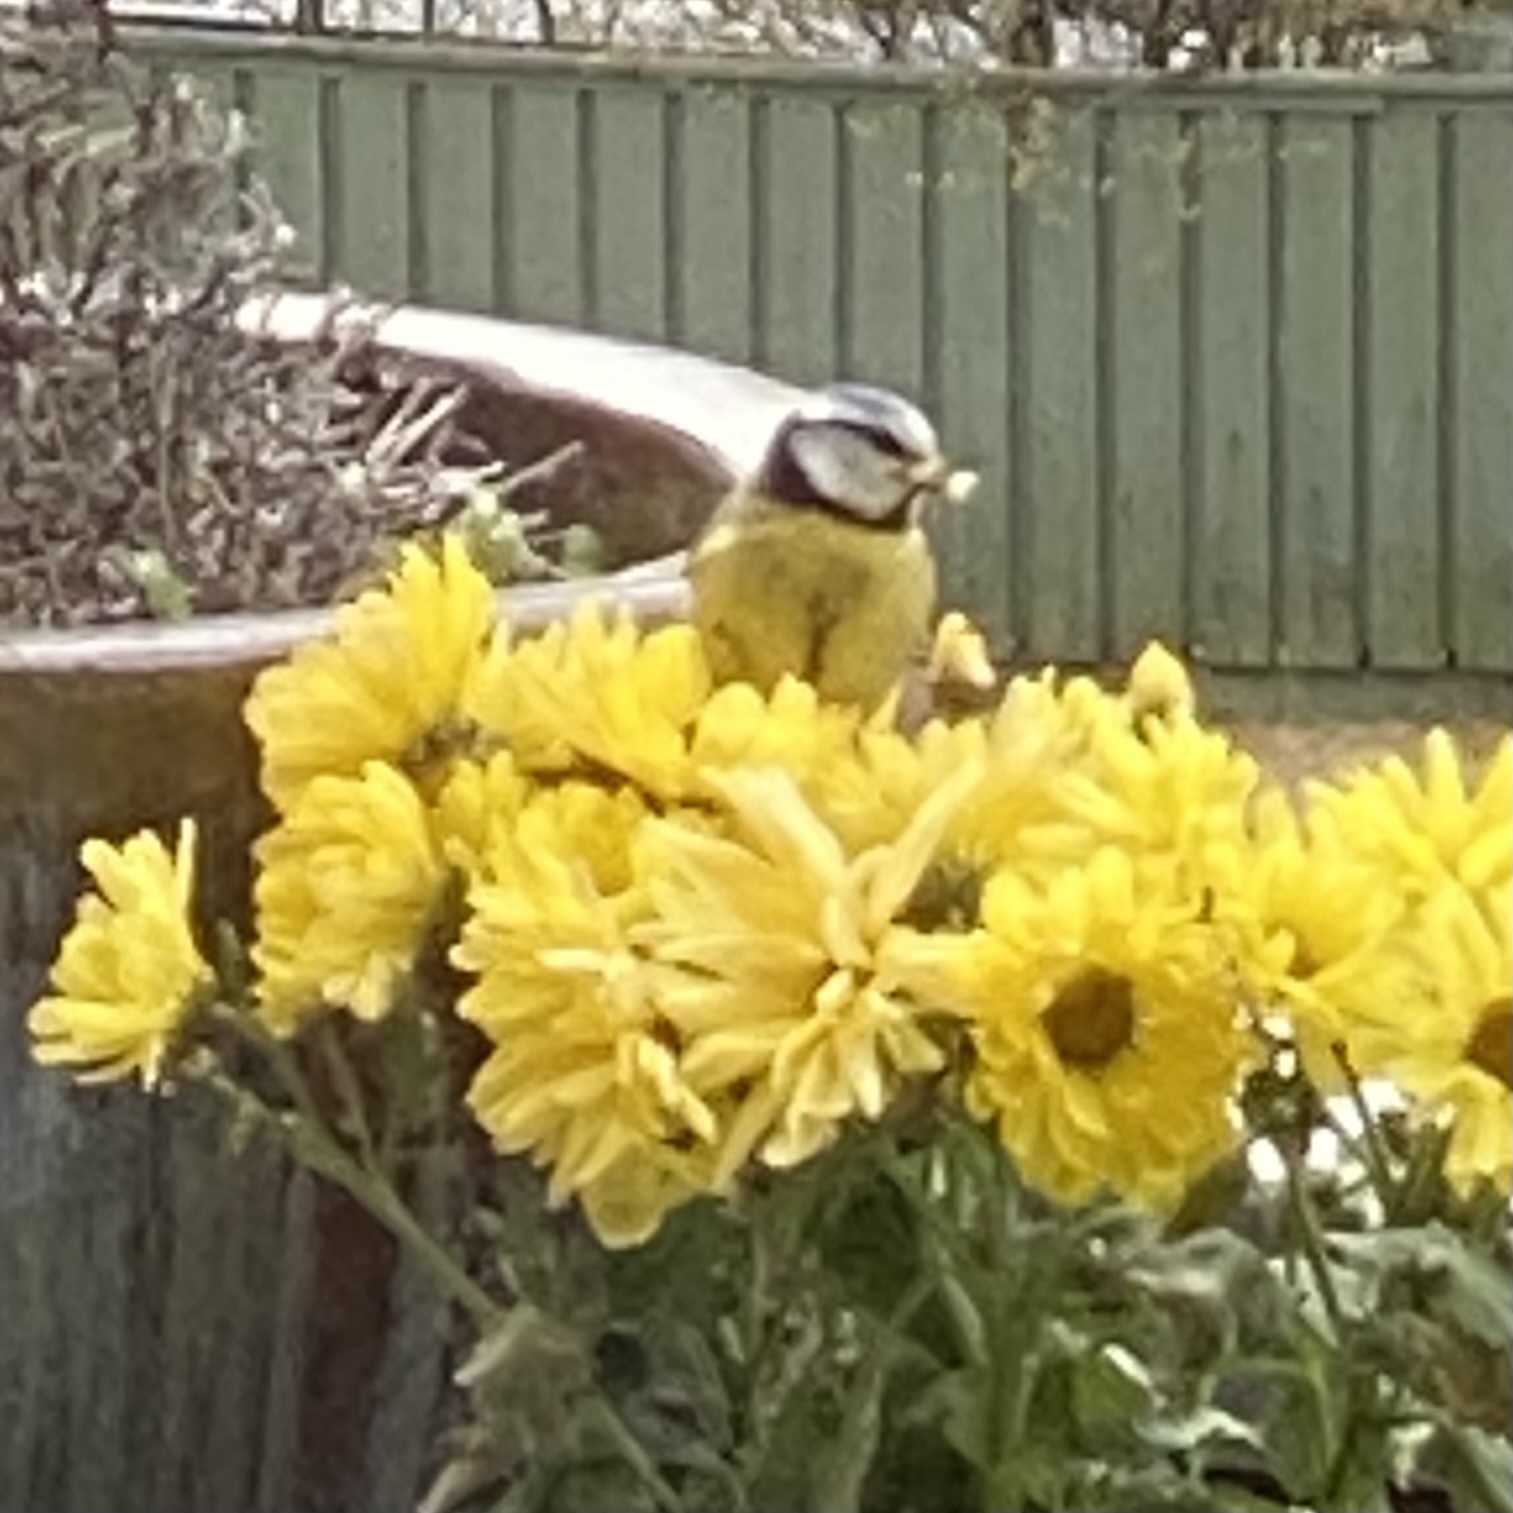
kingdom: Animalia
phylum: Chordata
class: Aves
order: Passeriformes
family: Paridae
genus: Cyanistes
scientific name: Cyanistes caeruleus
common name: Eurasian blue tit
